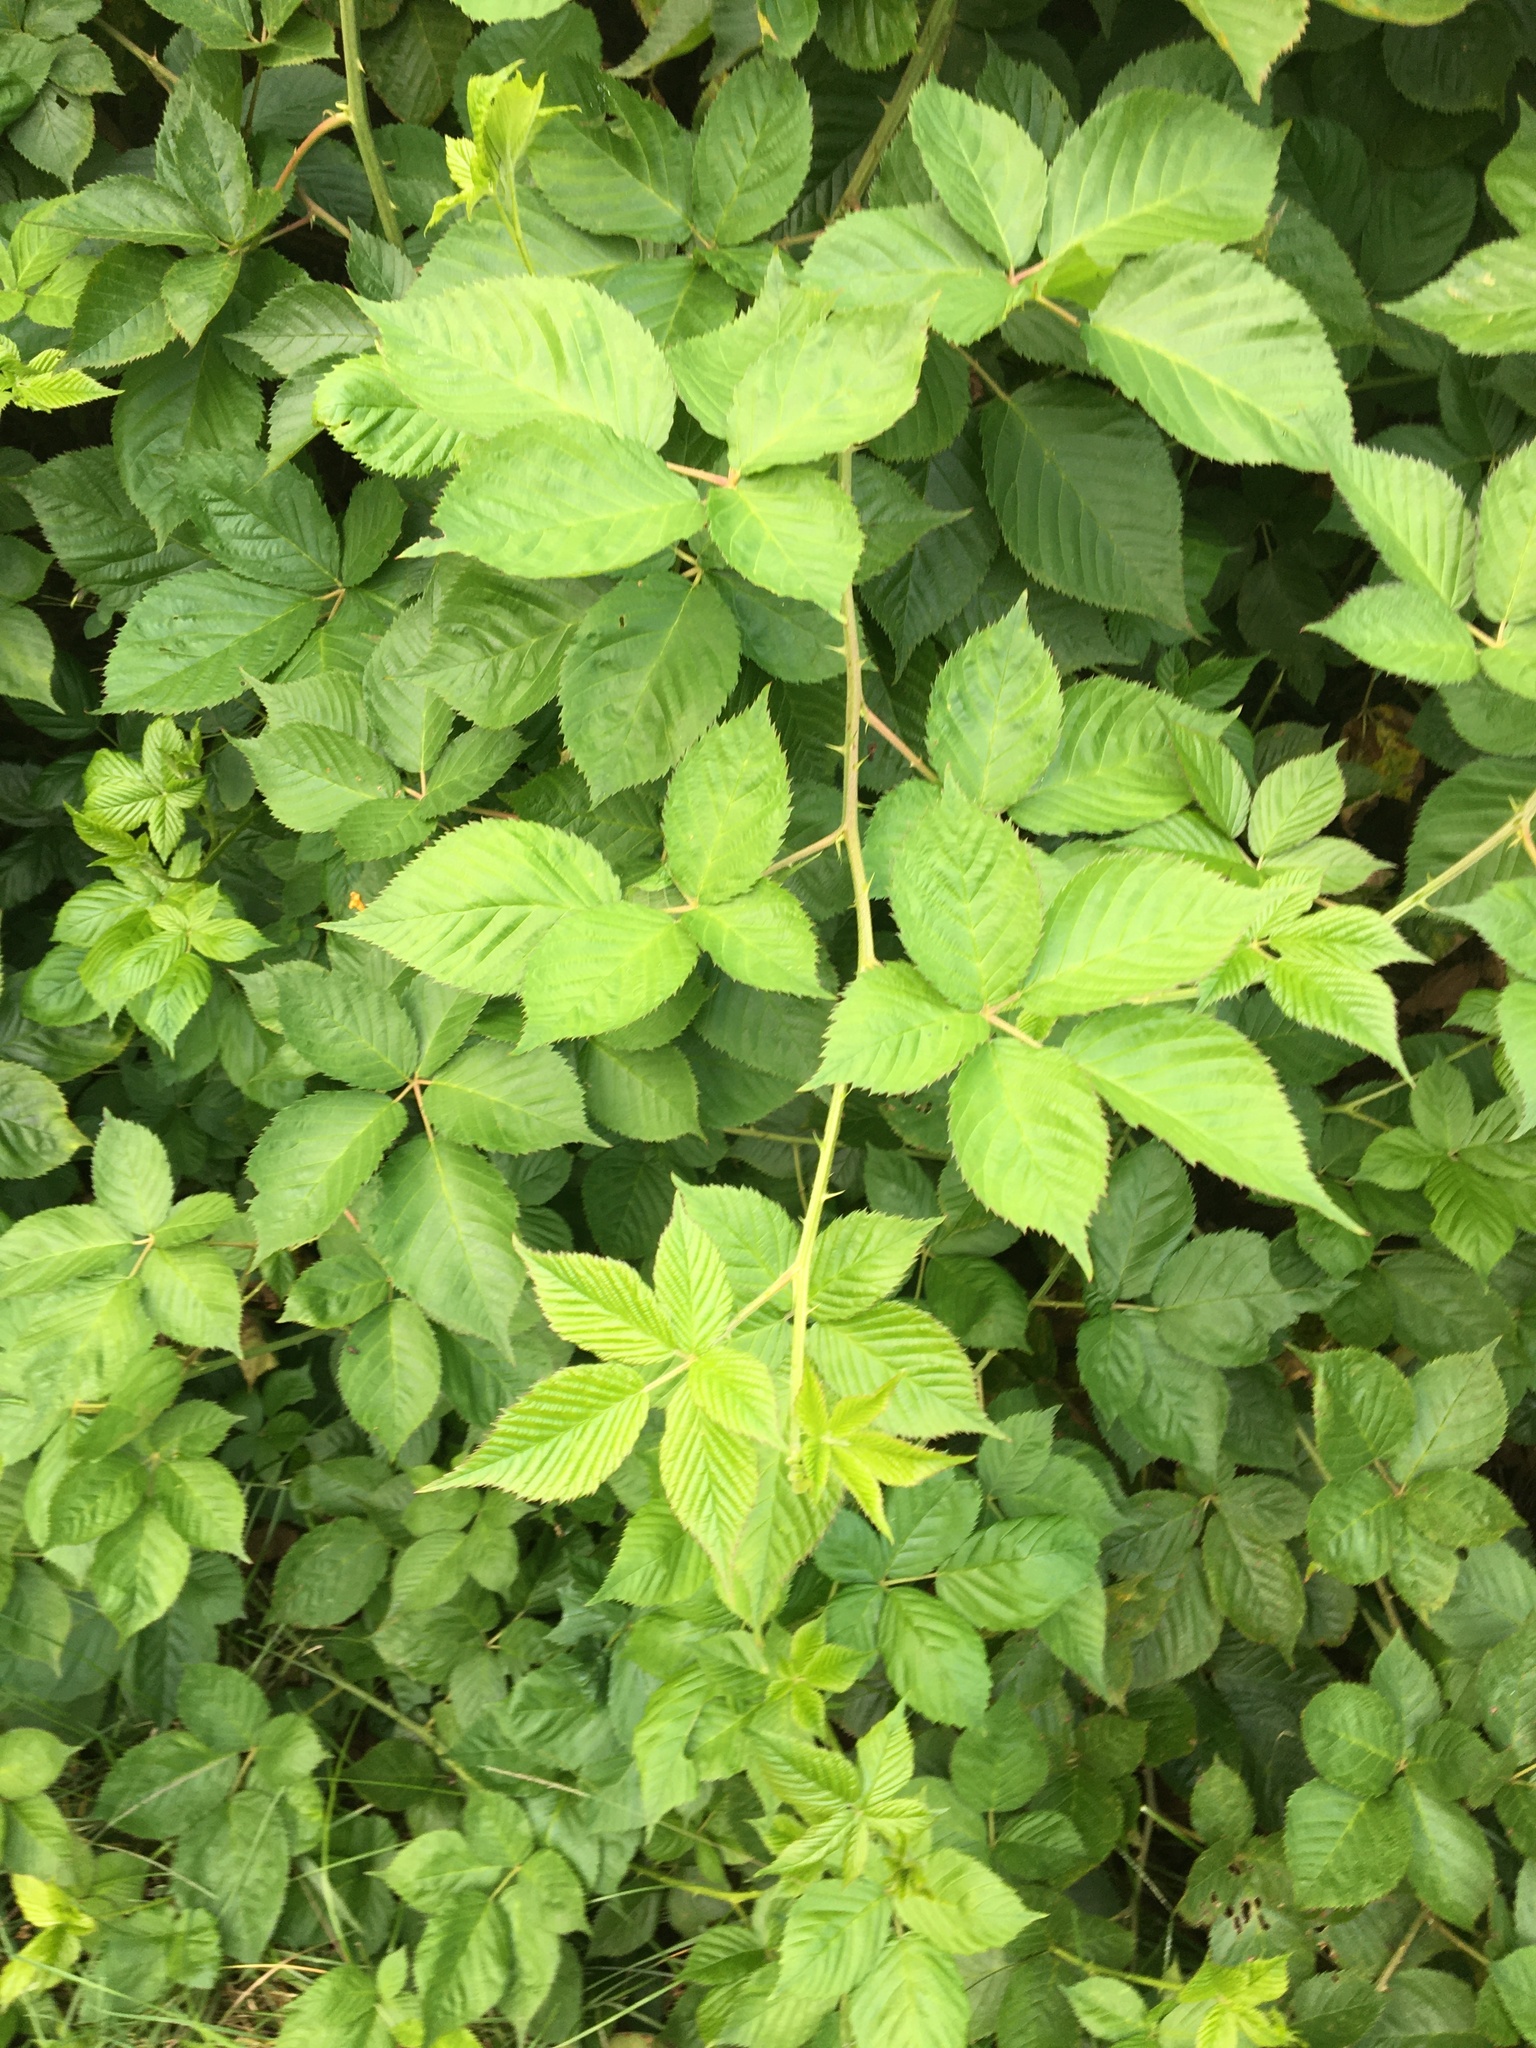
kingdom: Plantae
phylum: Tracheophyta
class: Magnoliopsida
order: Rosales
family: Rosaceae
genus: Rubus
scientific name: Rubus
